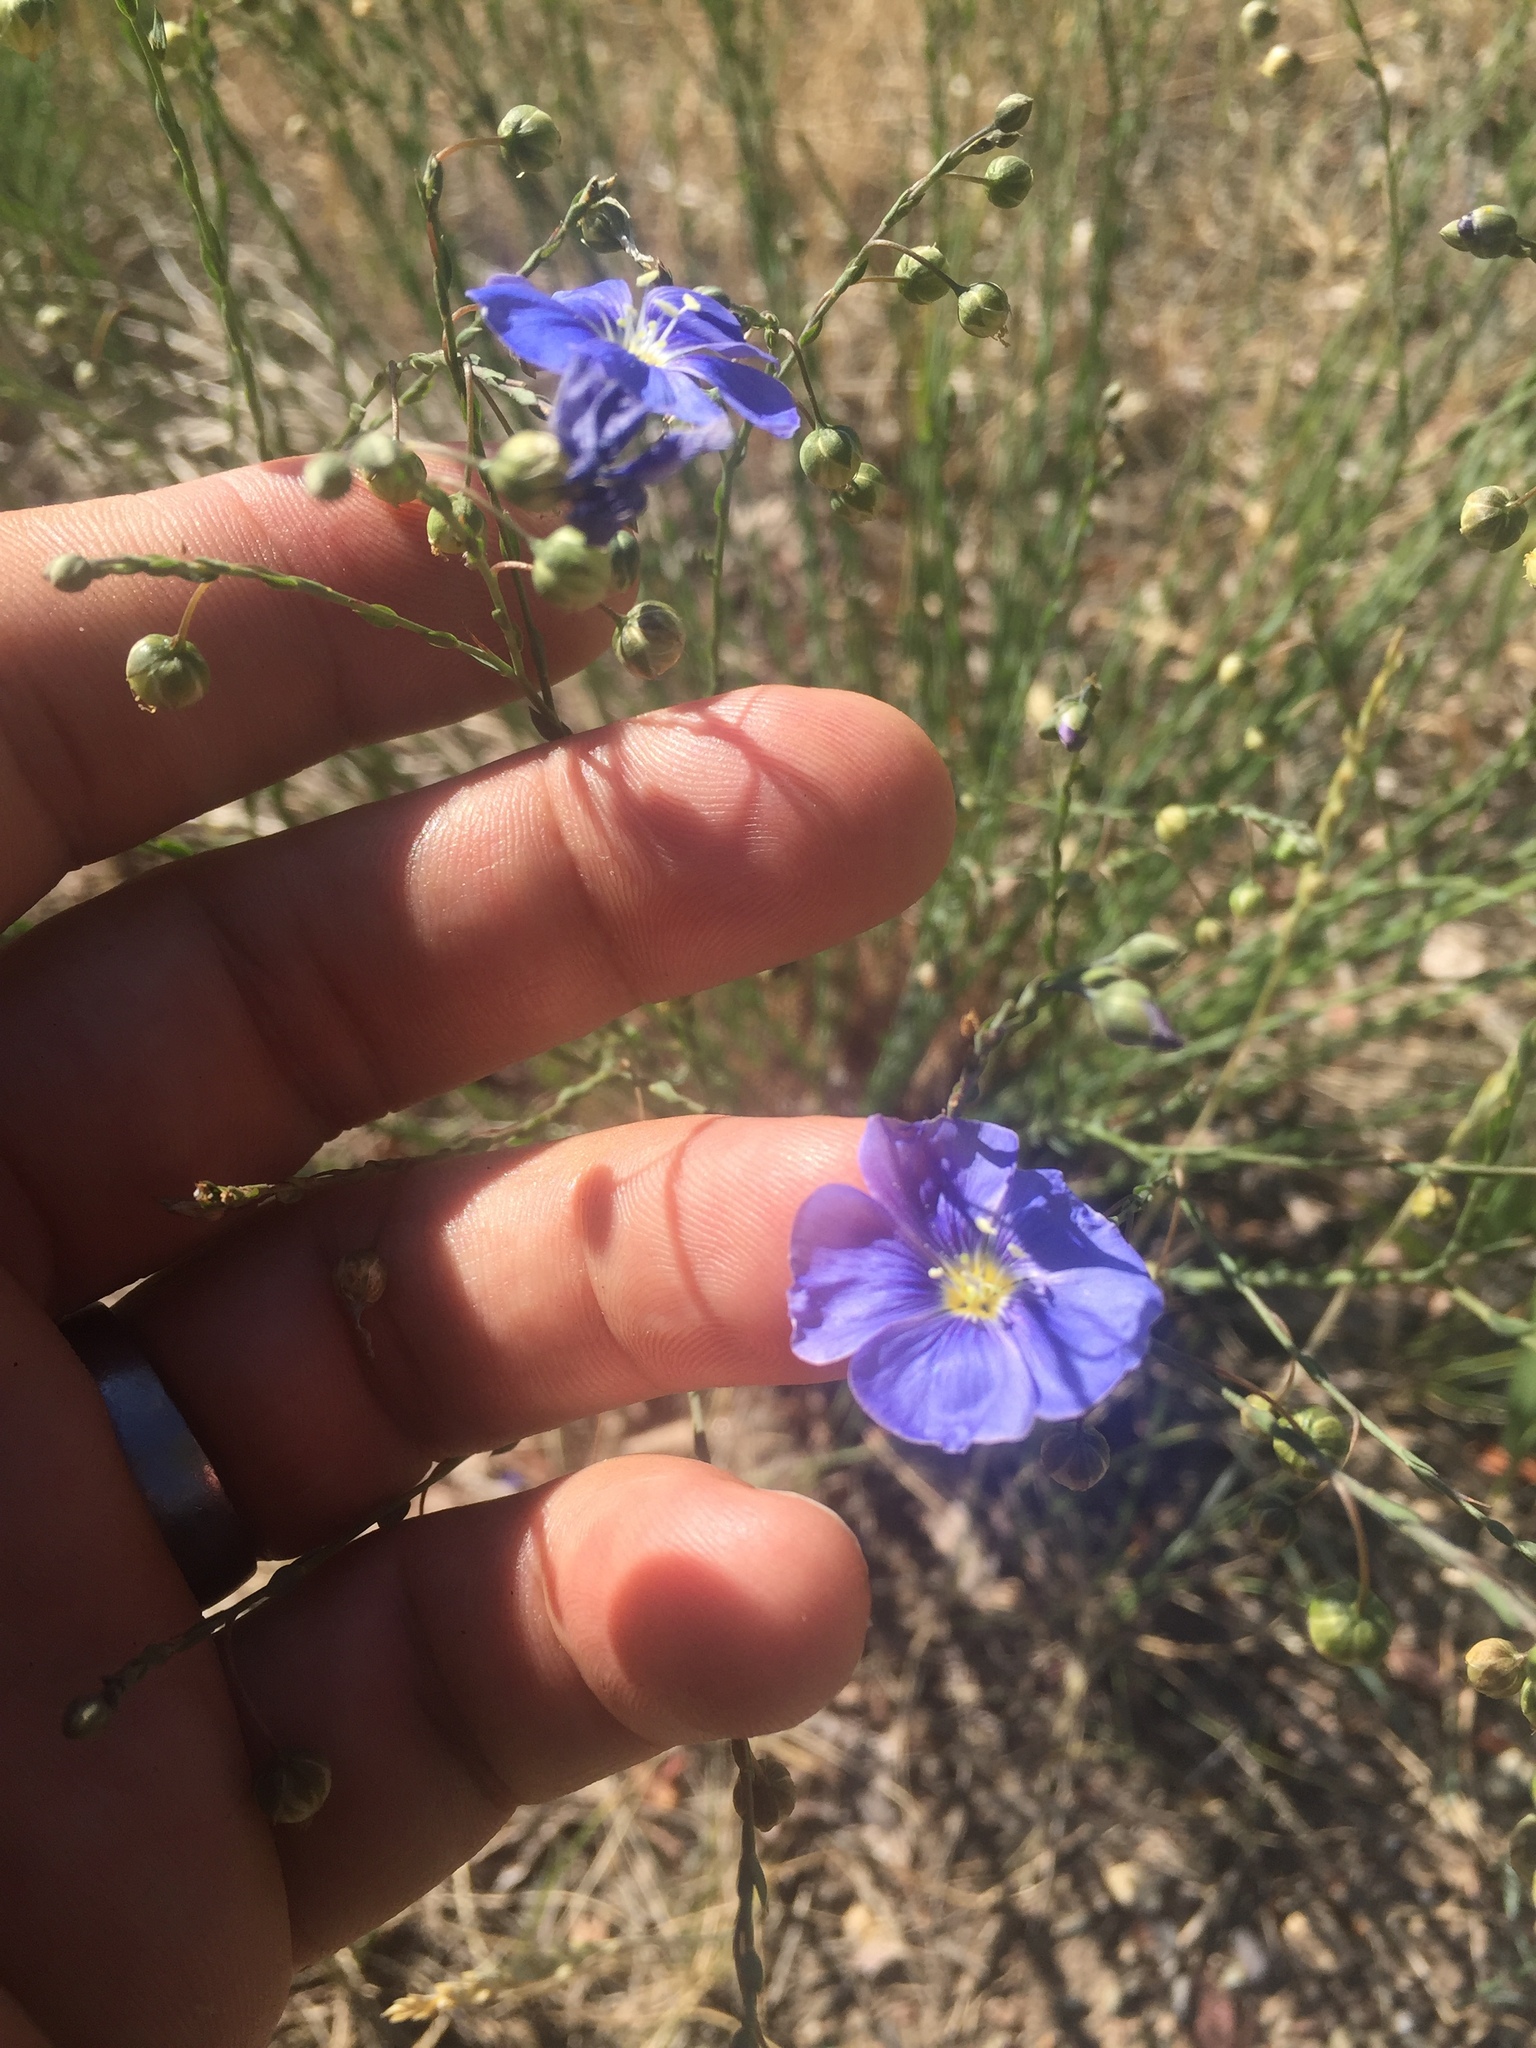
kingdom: Plantae
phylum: Tracheophyta
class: Magnoliopsida
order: Malpighiales
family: Linaceae
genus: Linum
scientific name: Linum lewisii
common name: Prairie flax
